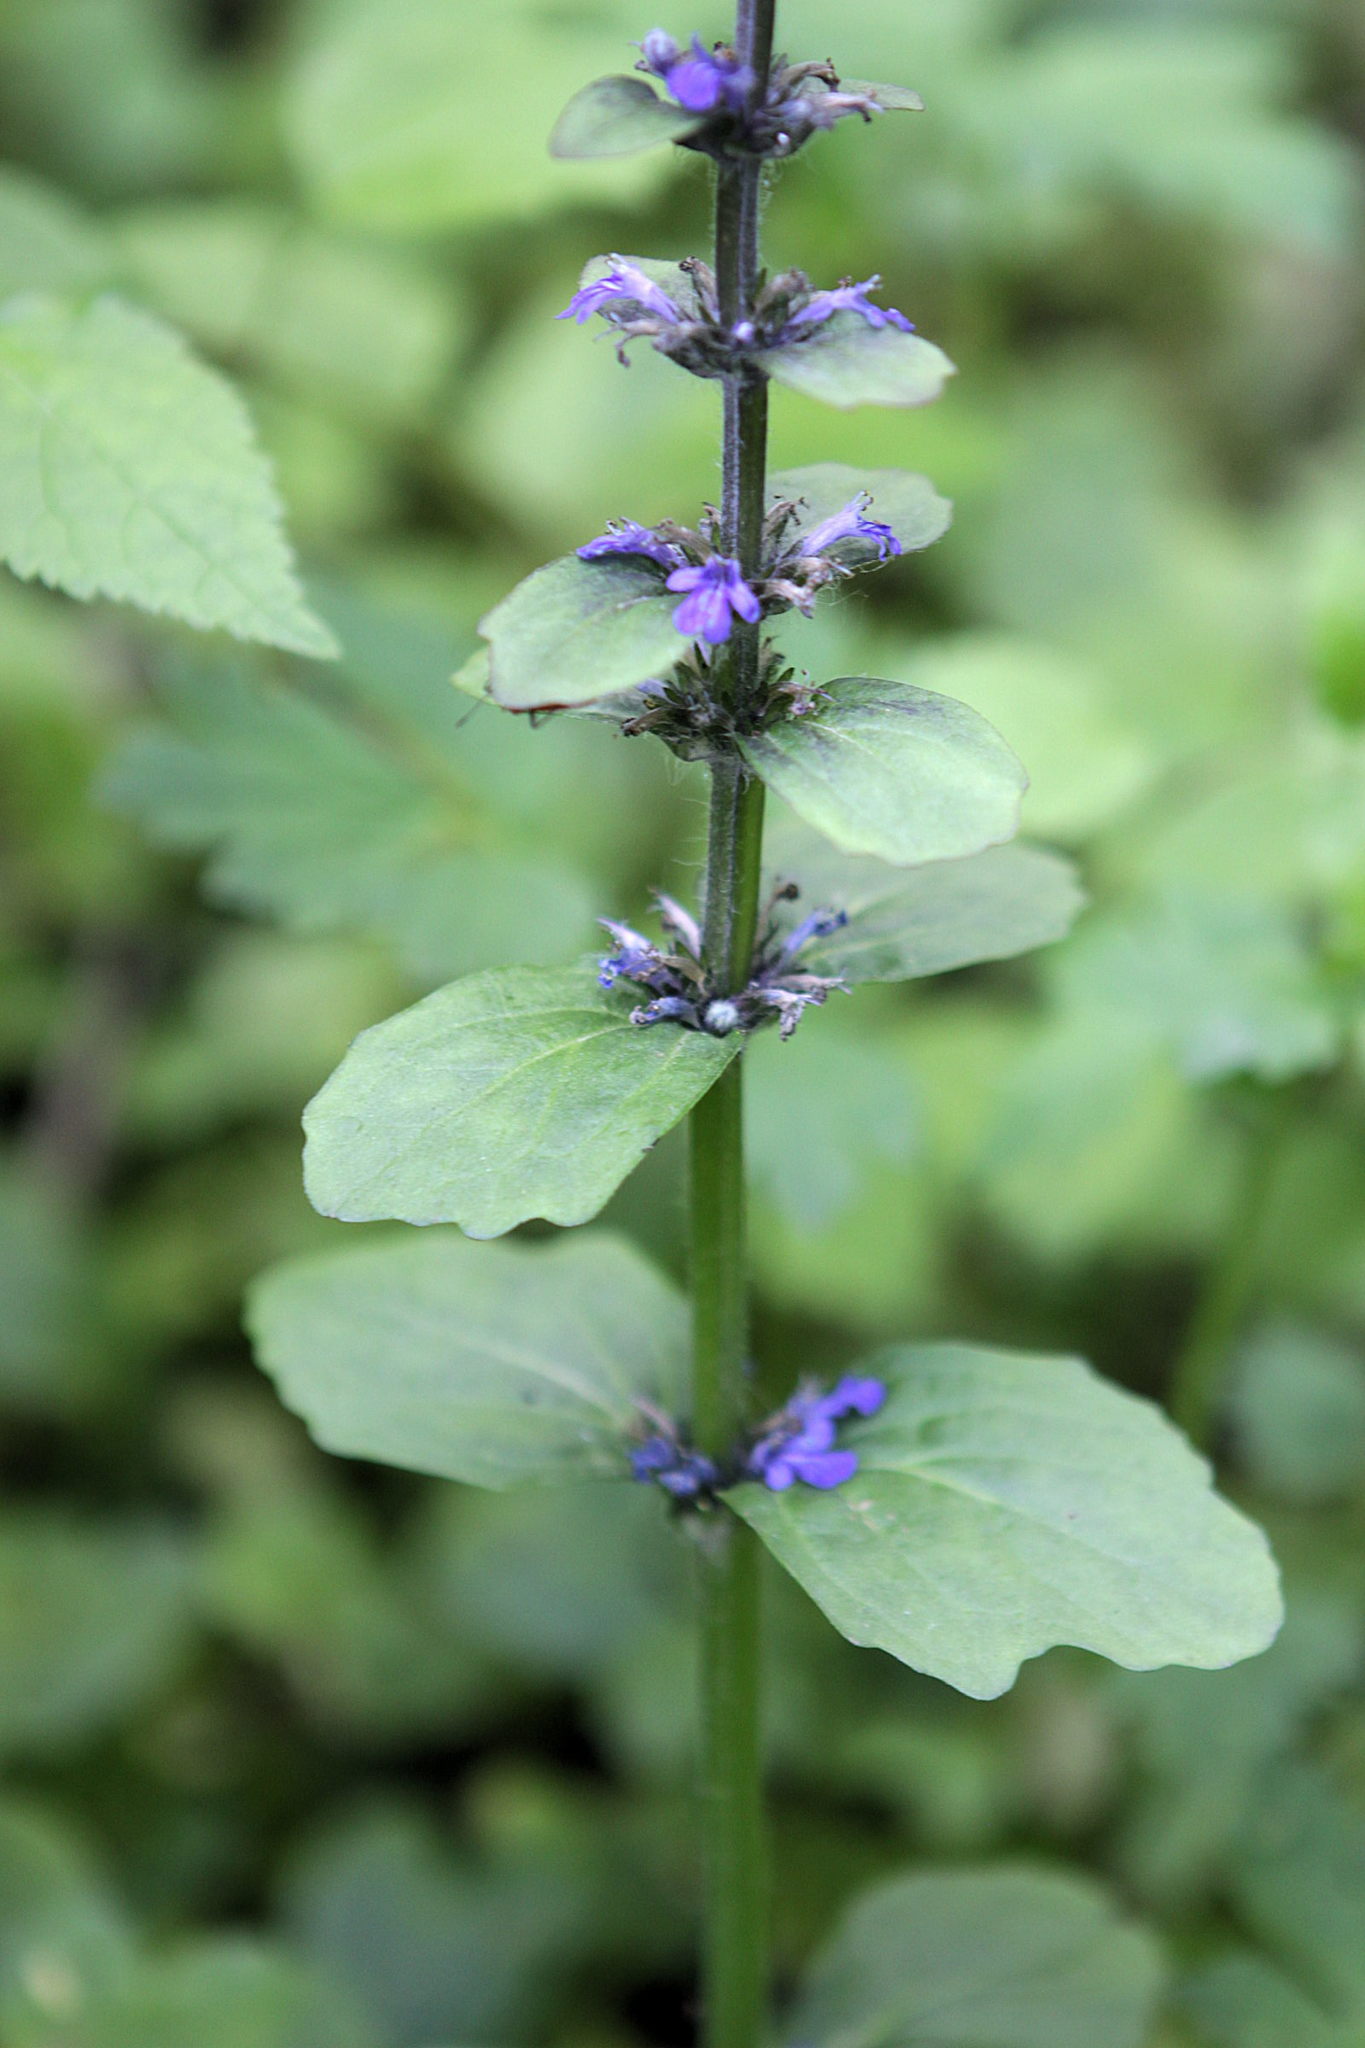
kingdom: Plantae
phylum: Tracheophyta
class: Magnoliopsida
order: Lamiales
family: Lamiaceae
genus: Ajuga
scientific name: Ajuga reptans
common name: Bugle
